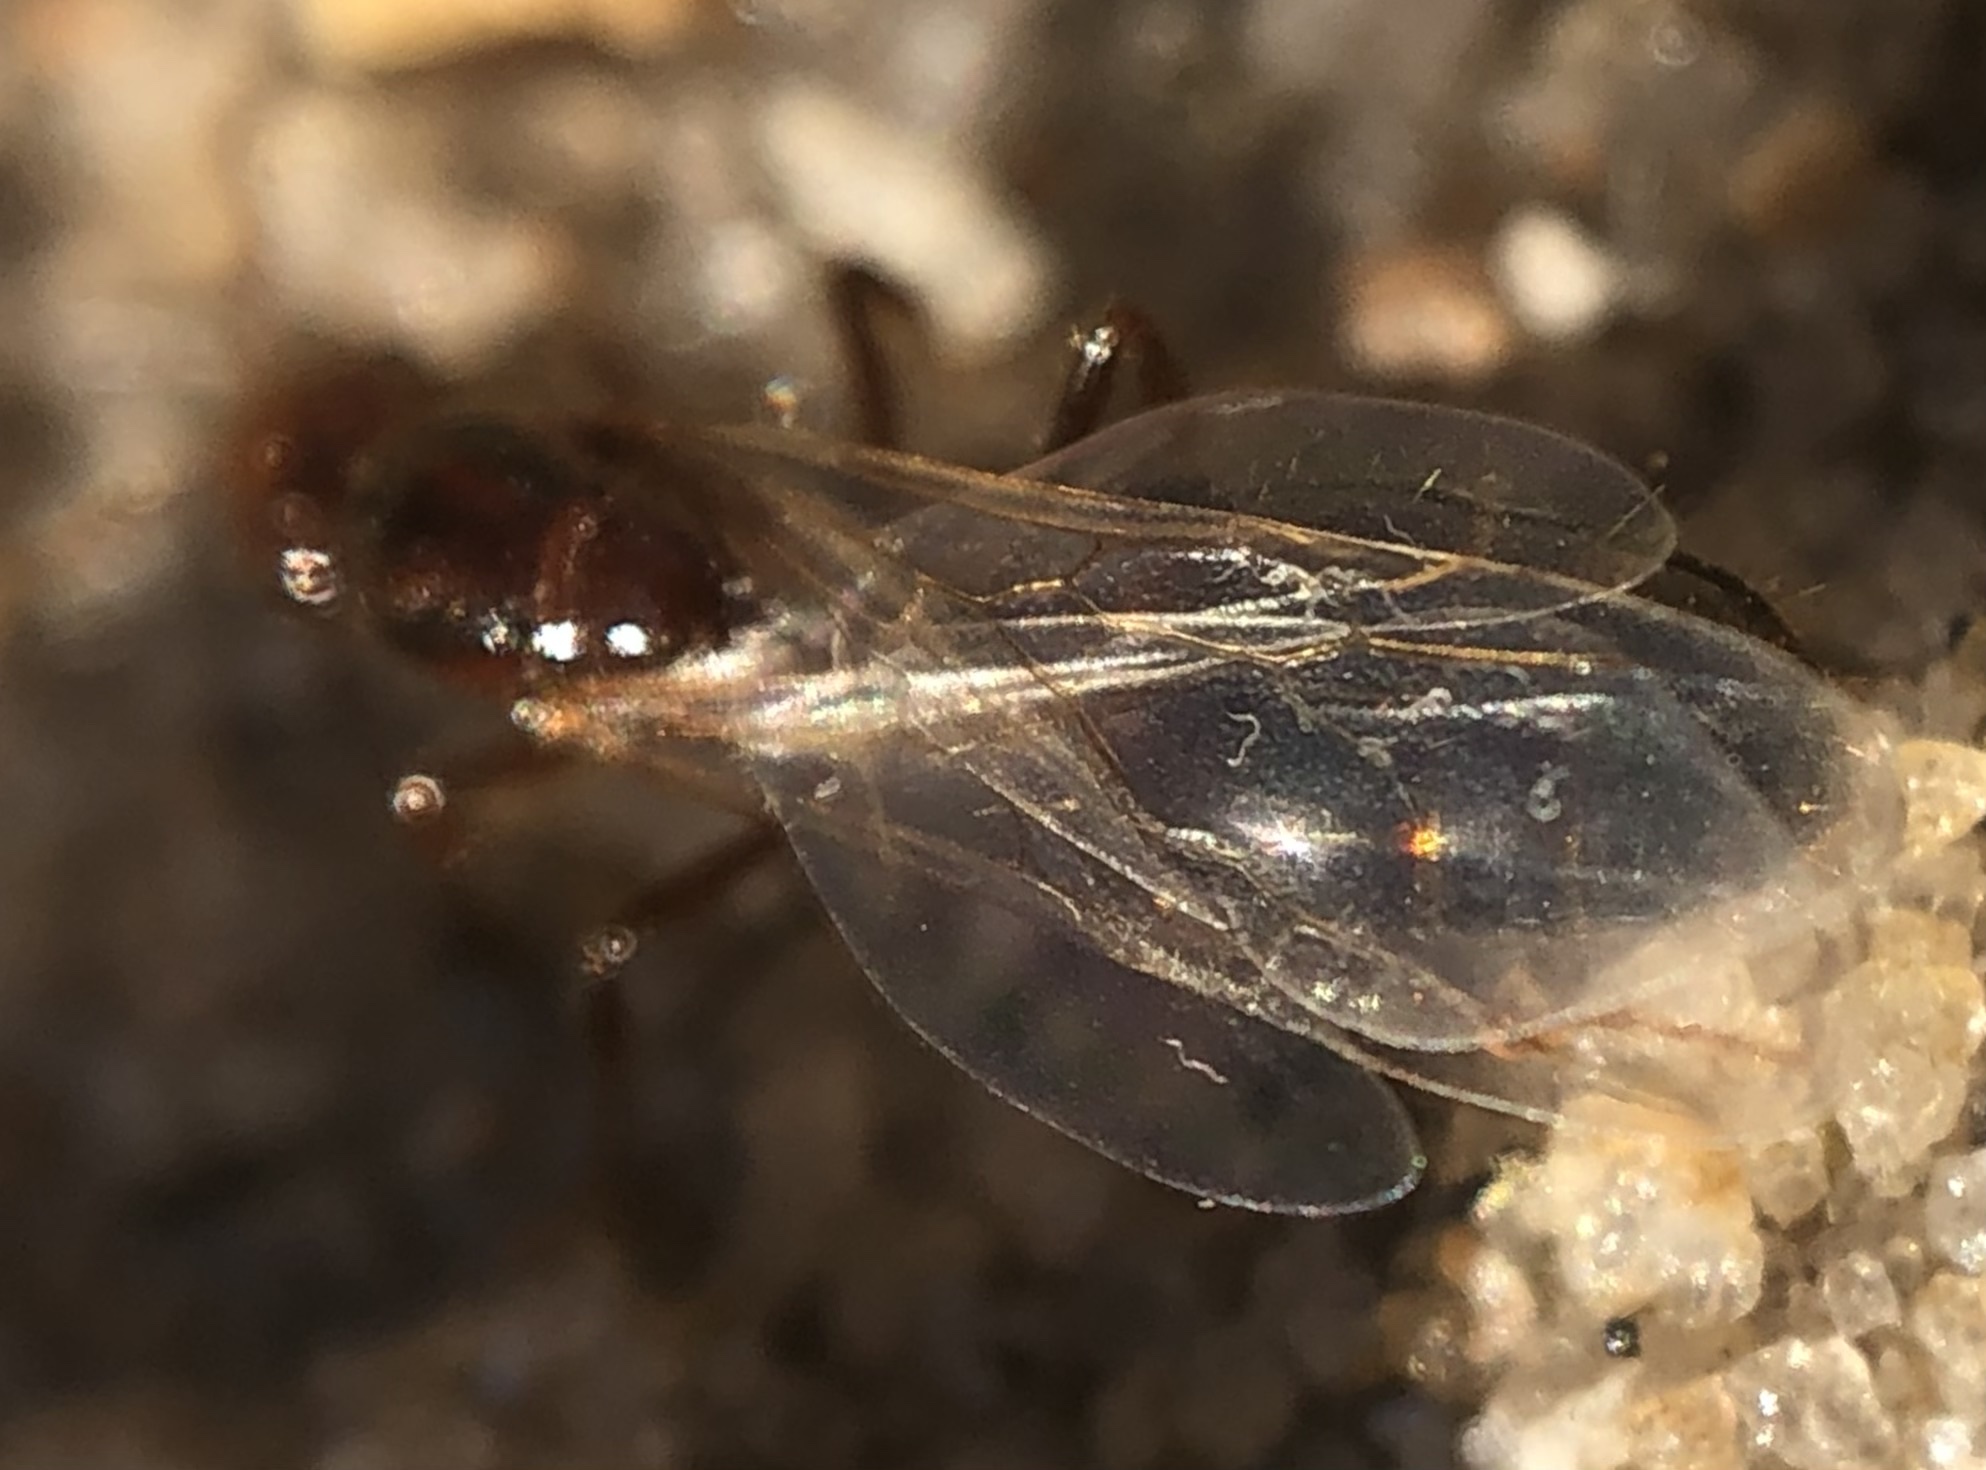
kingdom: Animalia
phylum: Arthropoda
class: Insecta
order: Hymenoptera
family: Formicidae
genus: Solenopsis
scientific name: Solenopsis invicta
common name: Red imported fire ant
